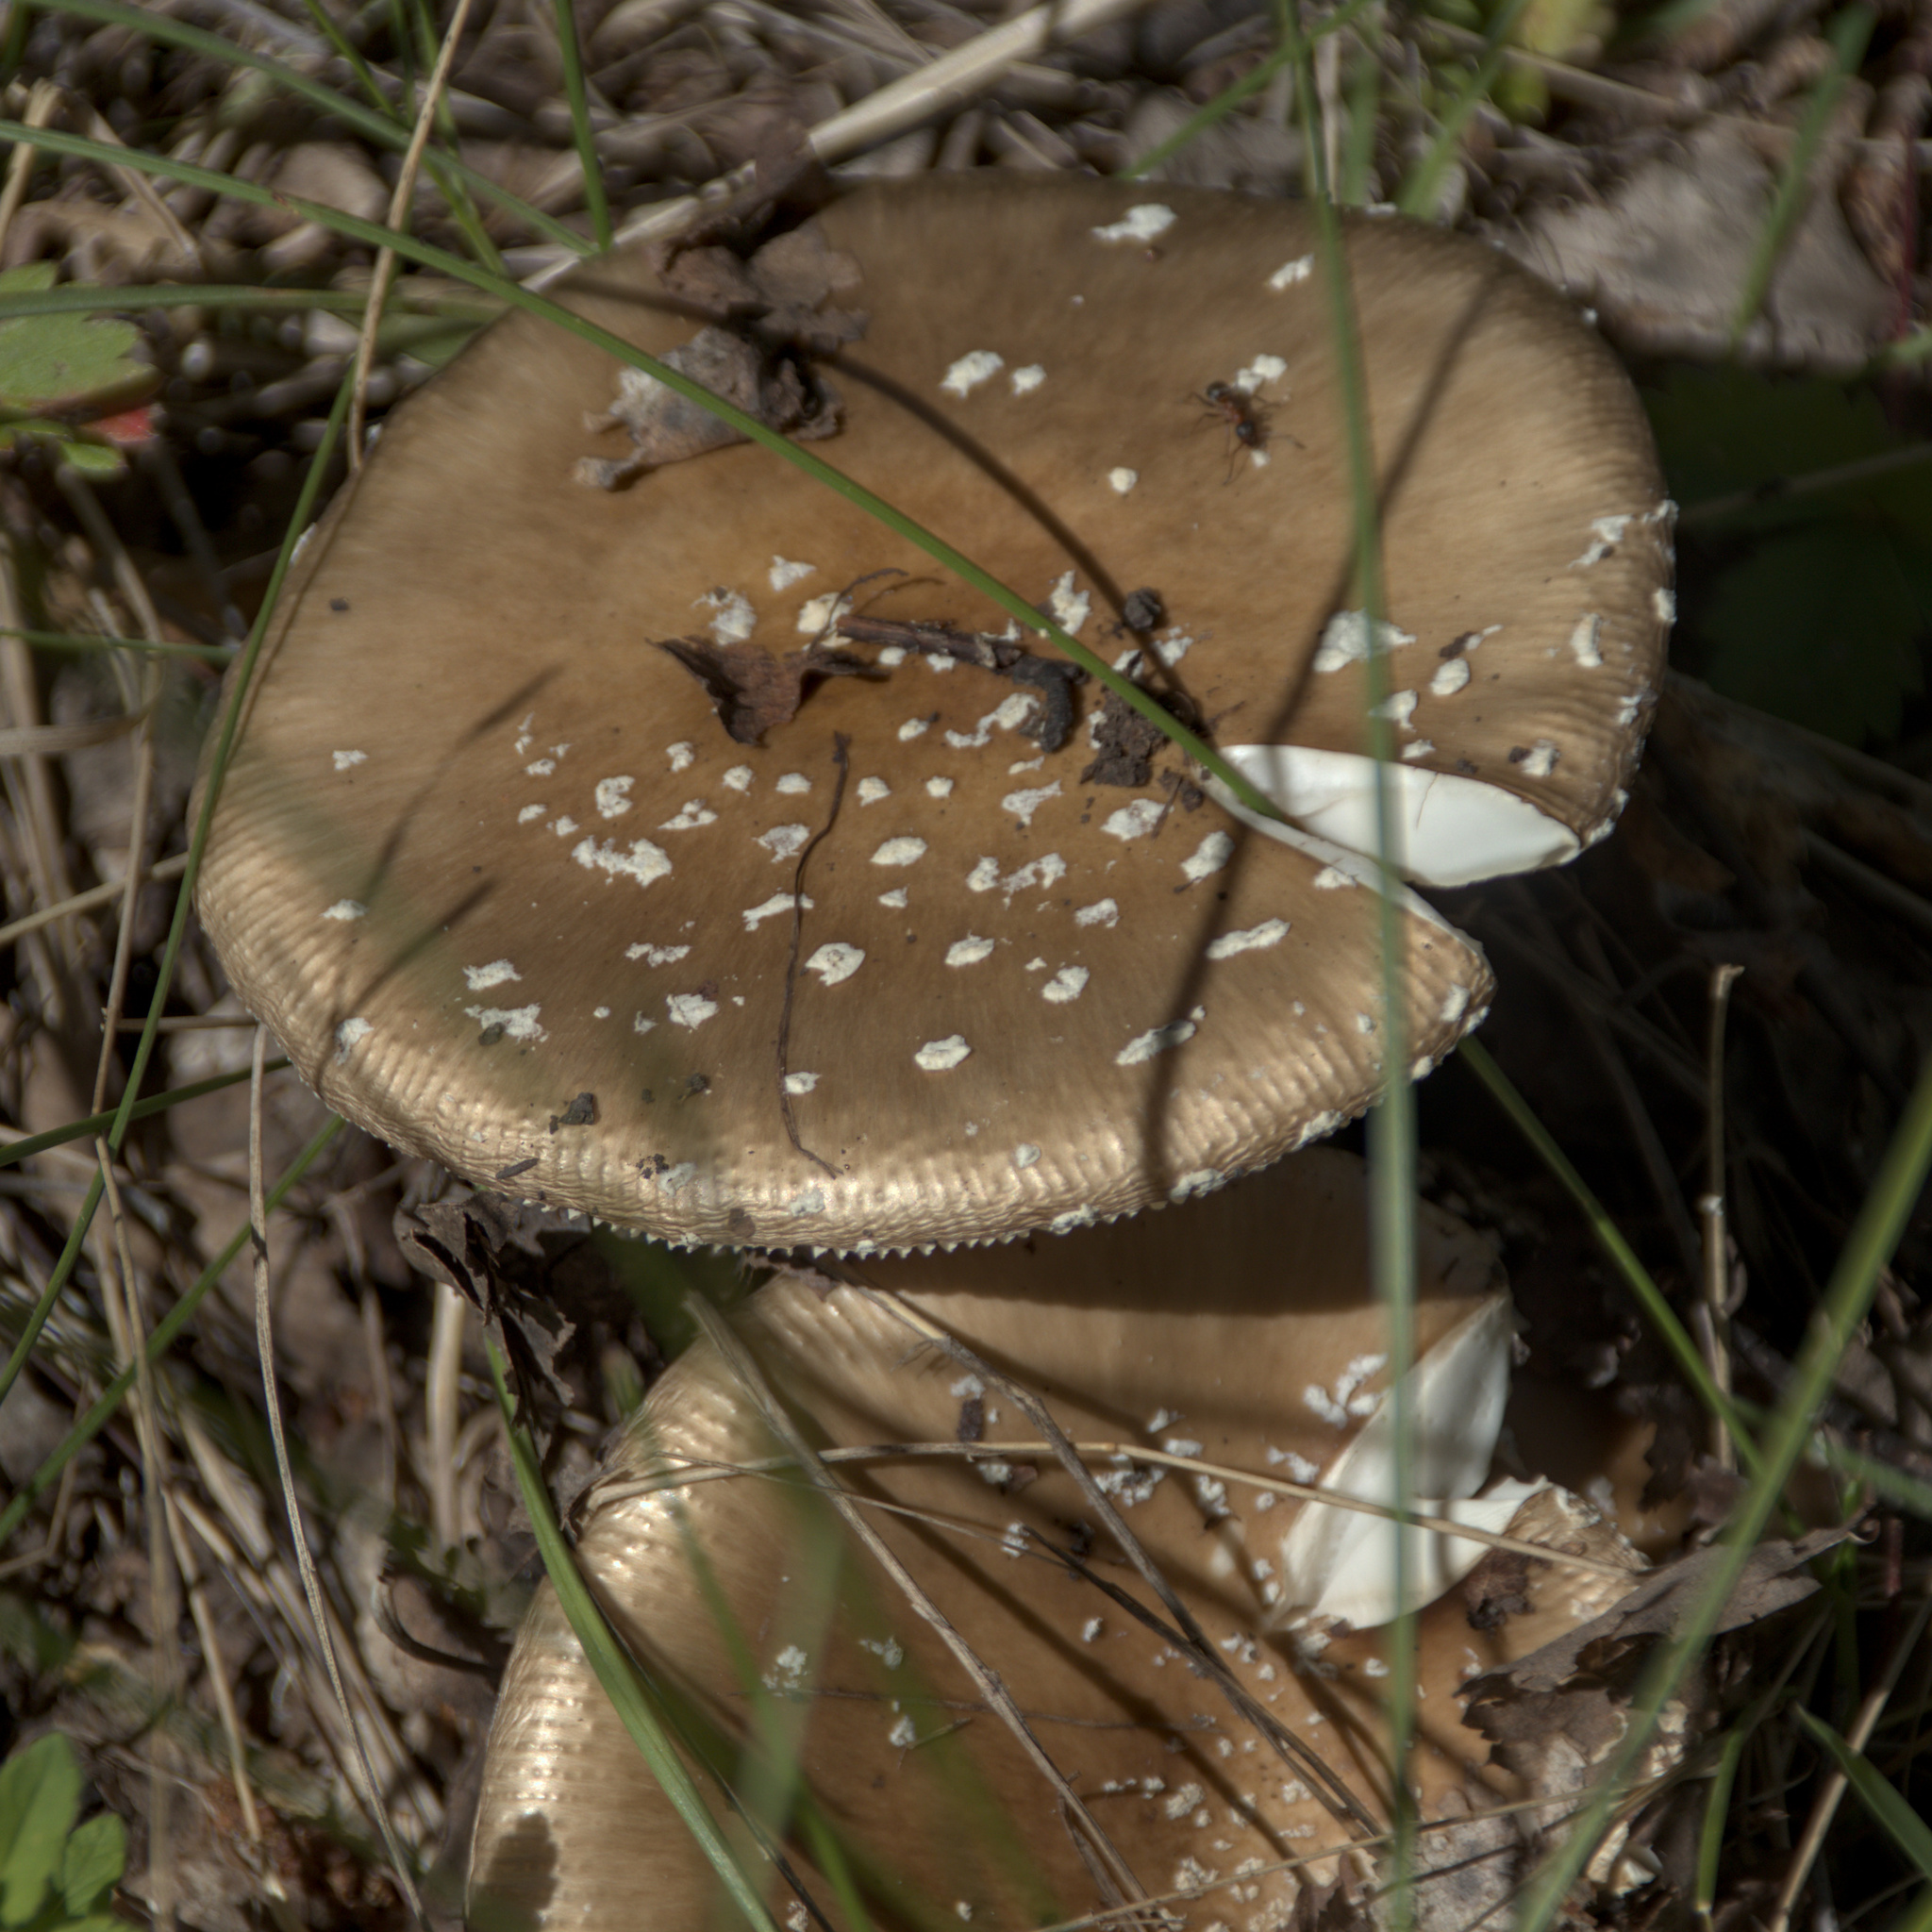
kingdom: Fungi
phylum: Basidiomycota
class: Agaricomycetes
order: Agaricales
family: Amanitaceae
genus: Amanita
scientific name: Amanita pantherina
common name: Panthercap
